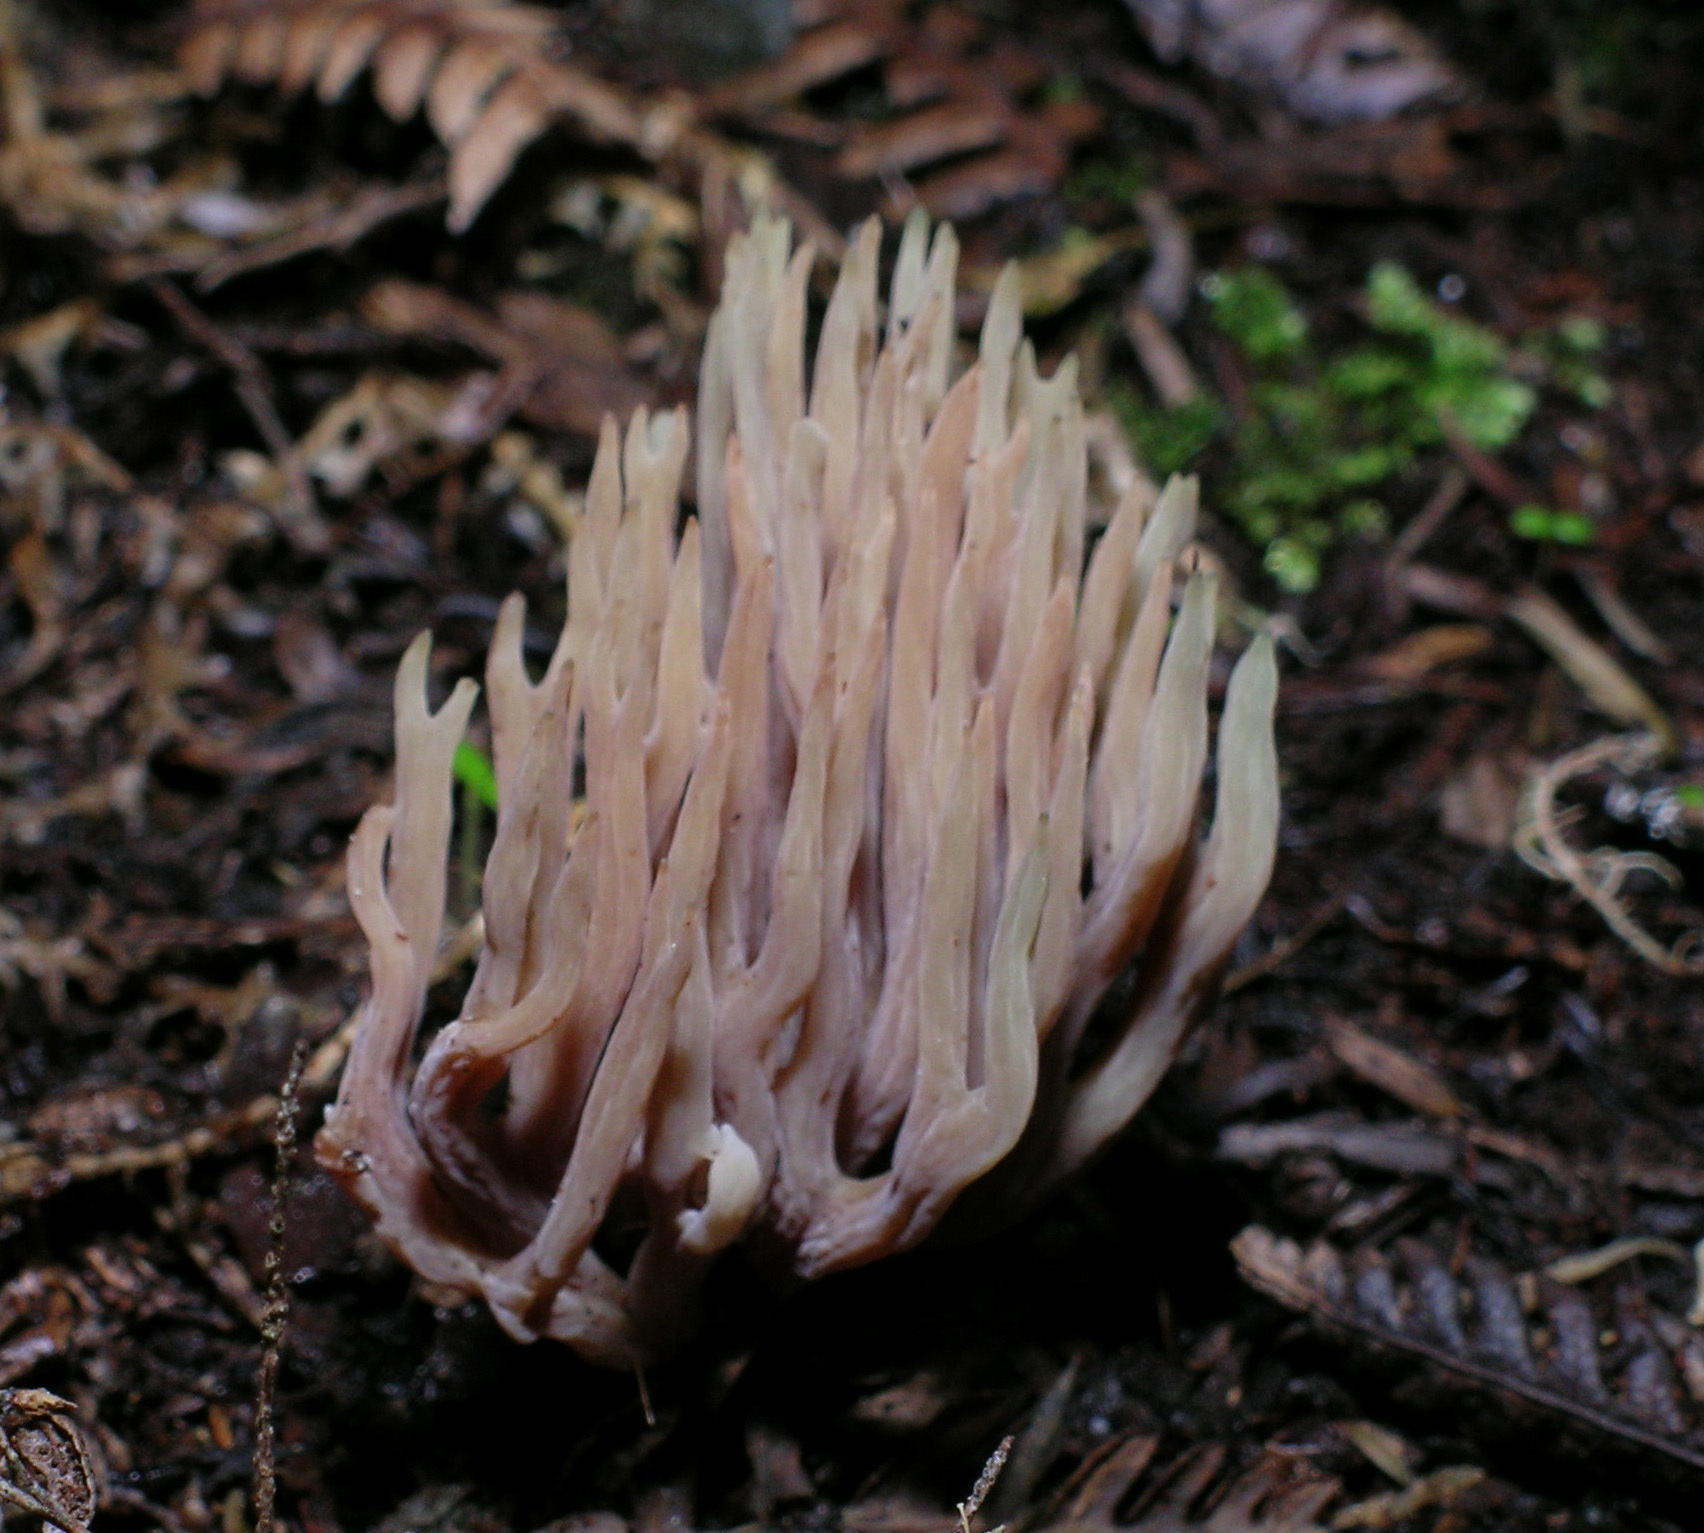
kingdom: Fungi
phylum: Basidiomycota
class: Agaricomycetes
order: Agaricales
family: Clavariaceae
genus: Ramariopsis
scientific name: Ramariopsis ramarioides
